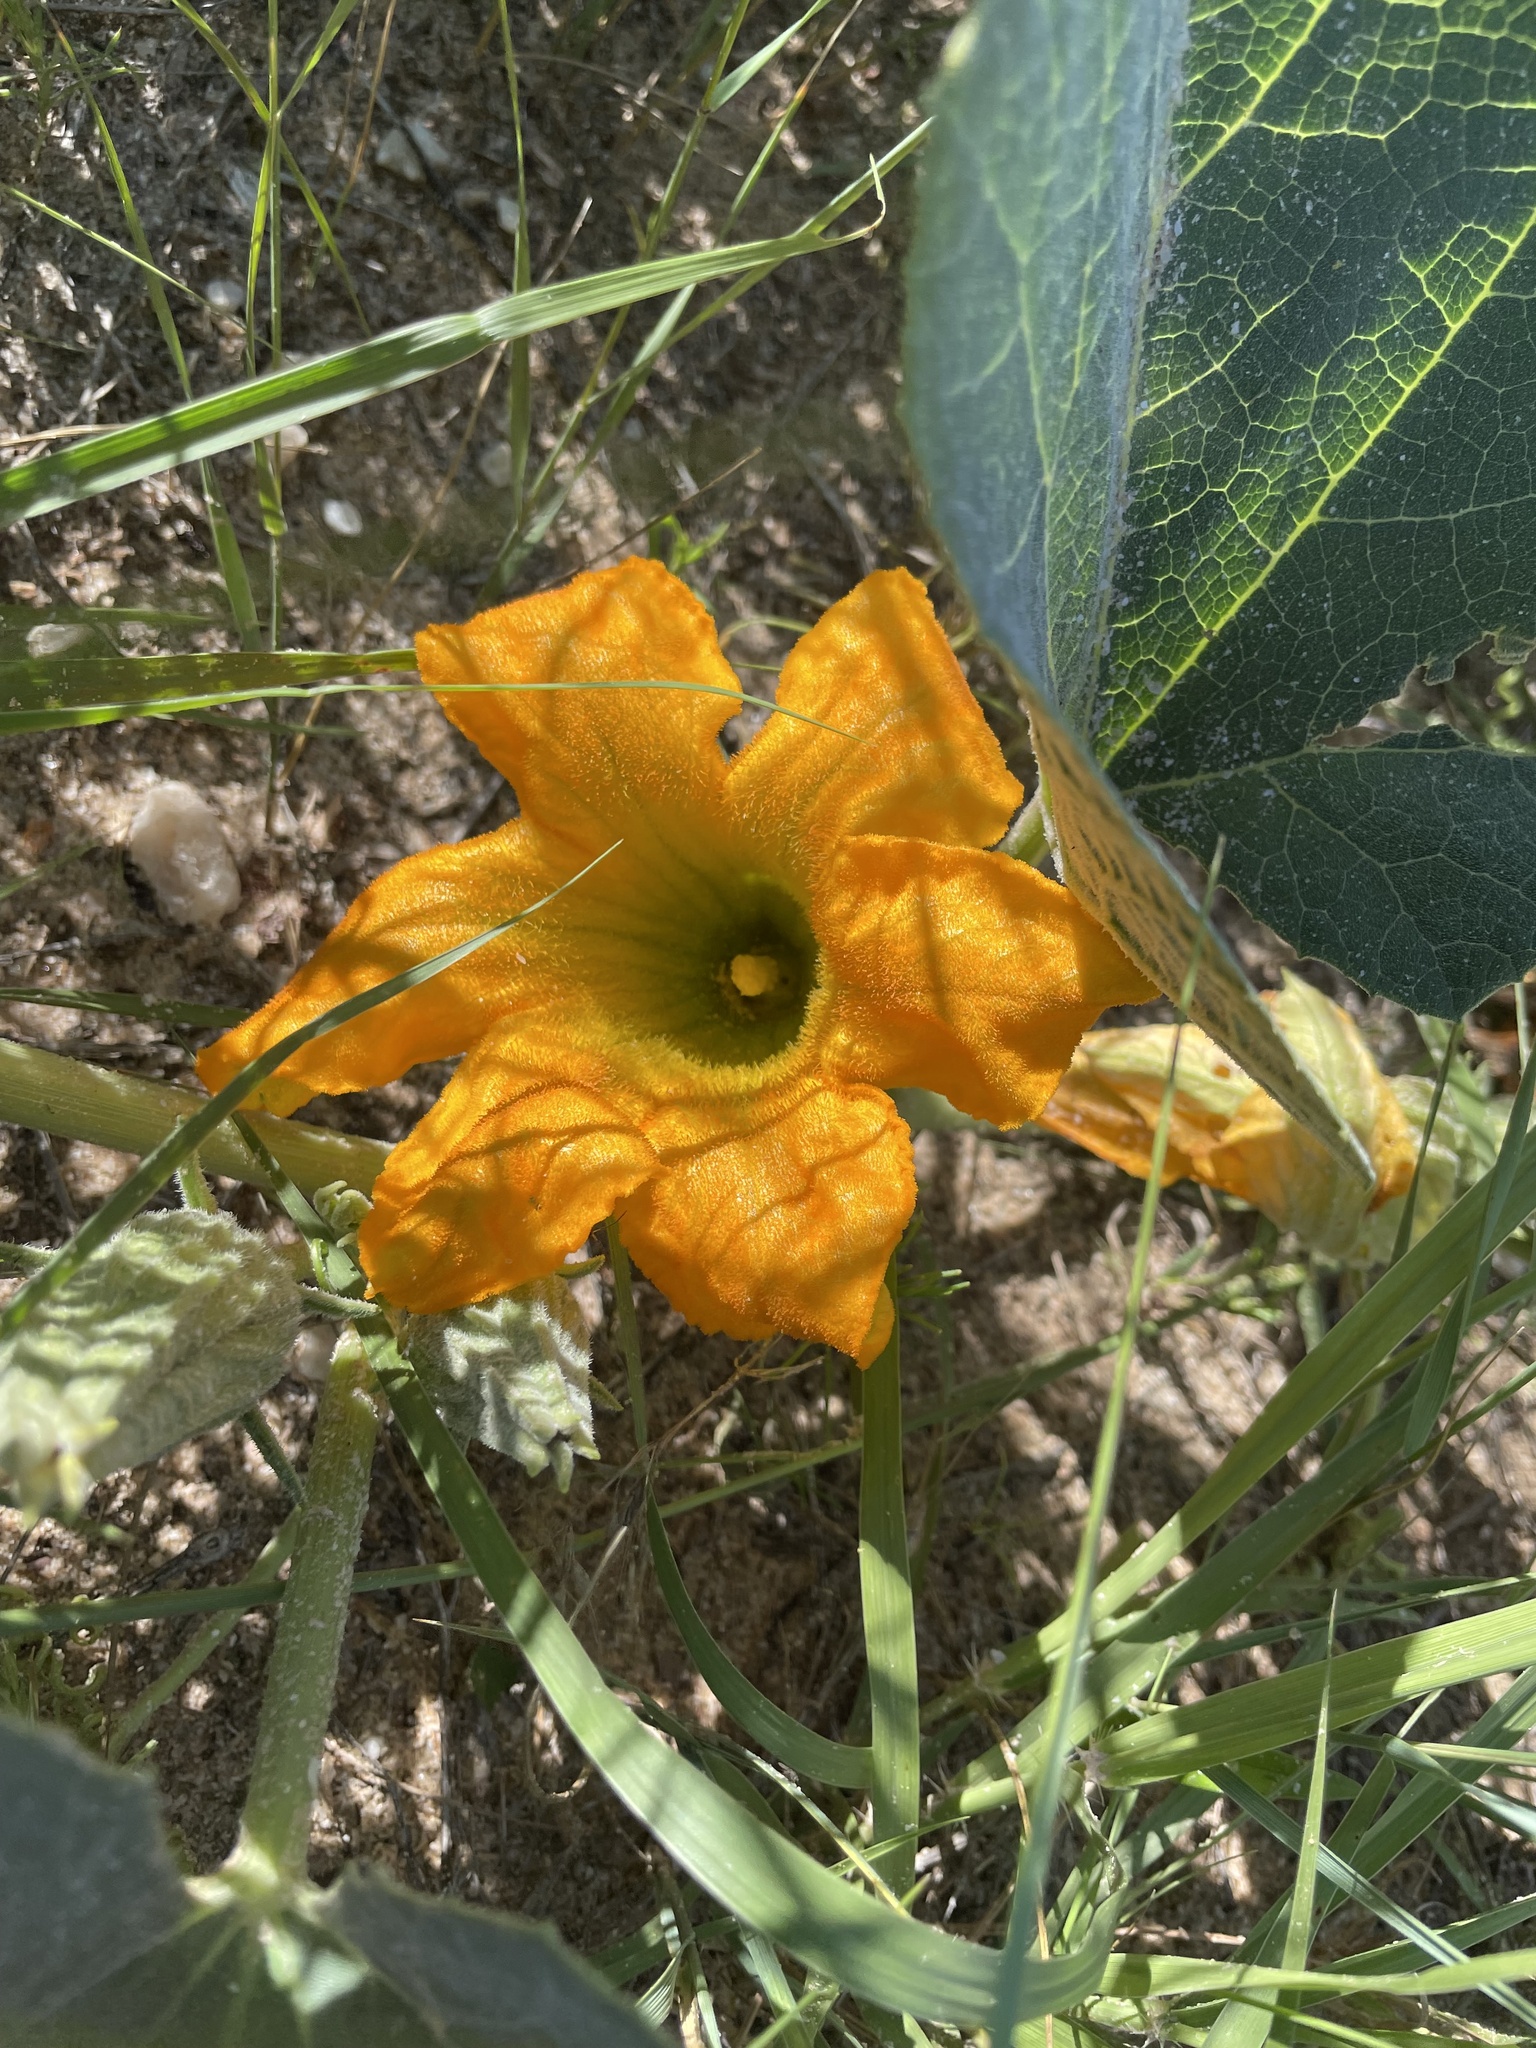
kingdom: Plantae
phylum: Tracheophyta
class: Magnoliopsida
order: Cucurbitales
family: Cucurbitaceae
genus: Cucurbita
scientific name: Cucurbita foetidissima
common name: Buffalo gourd
